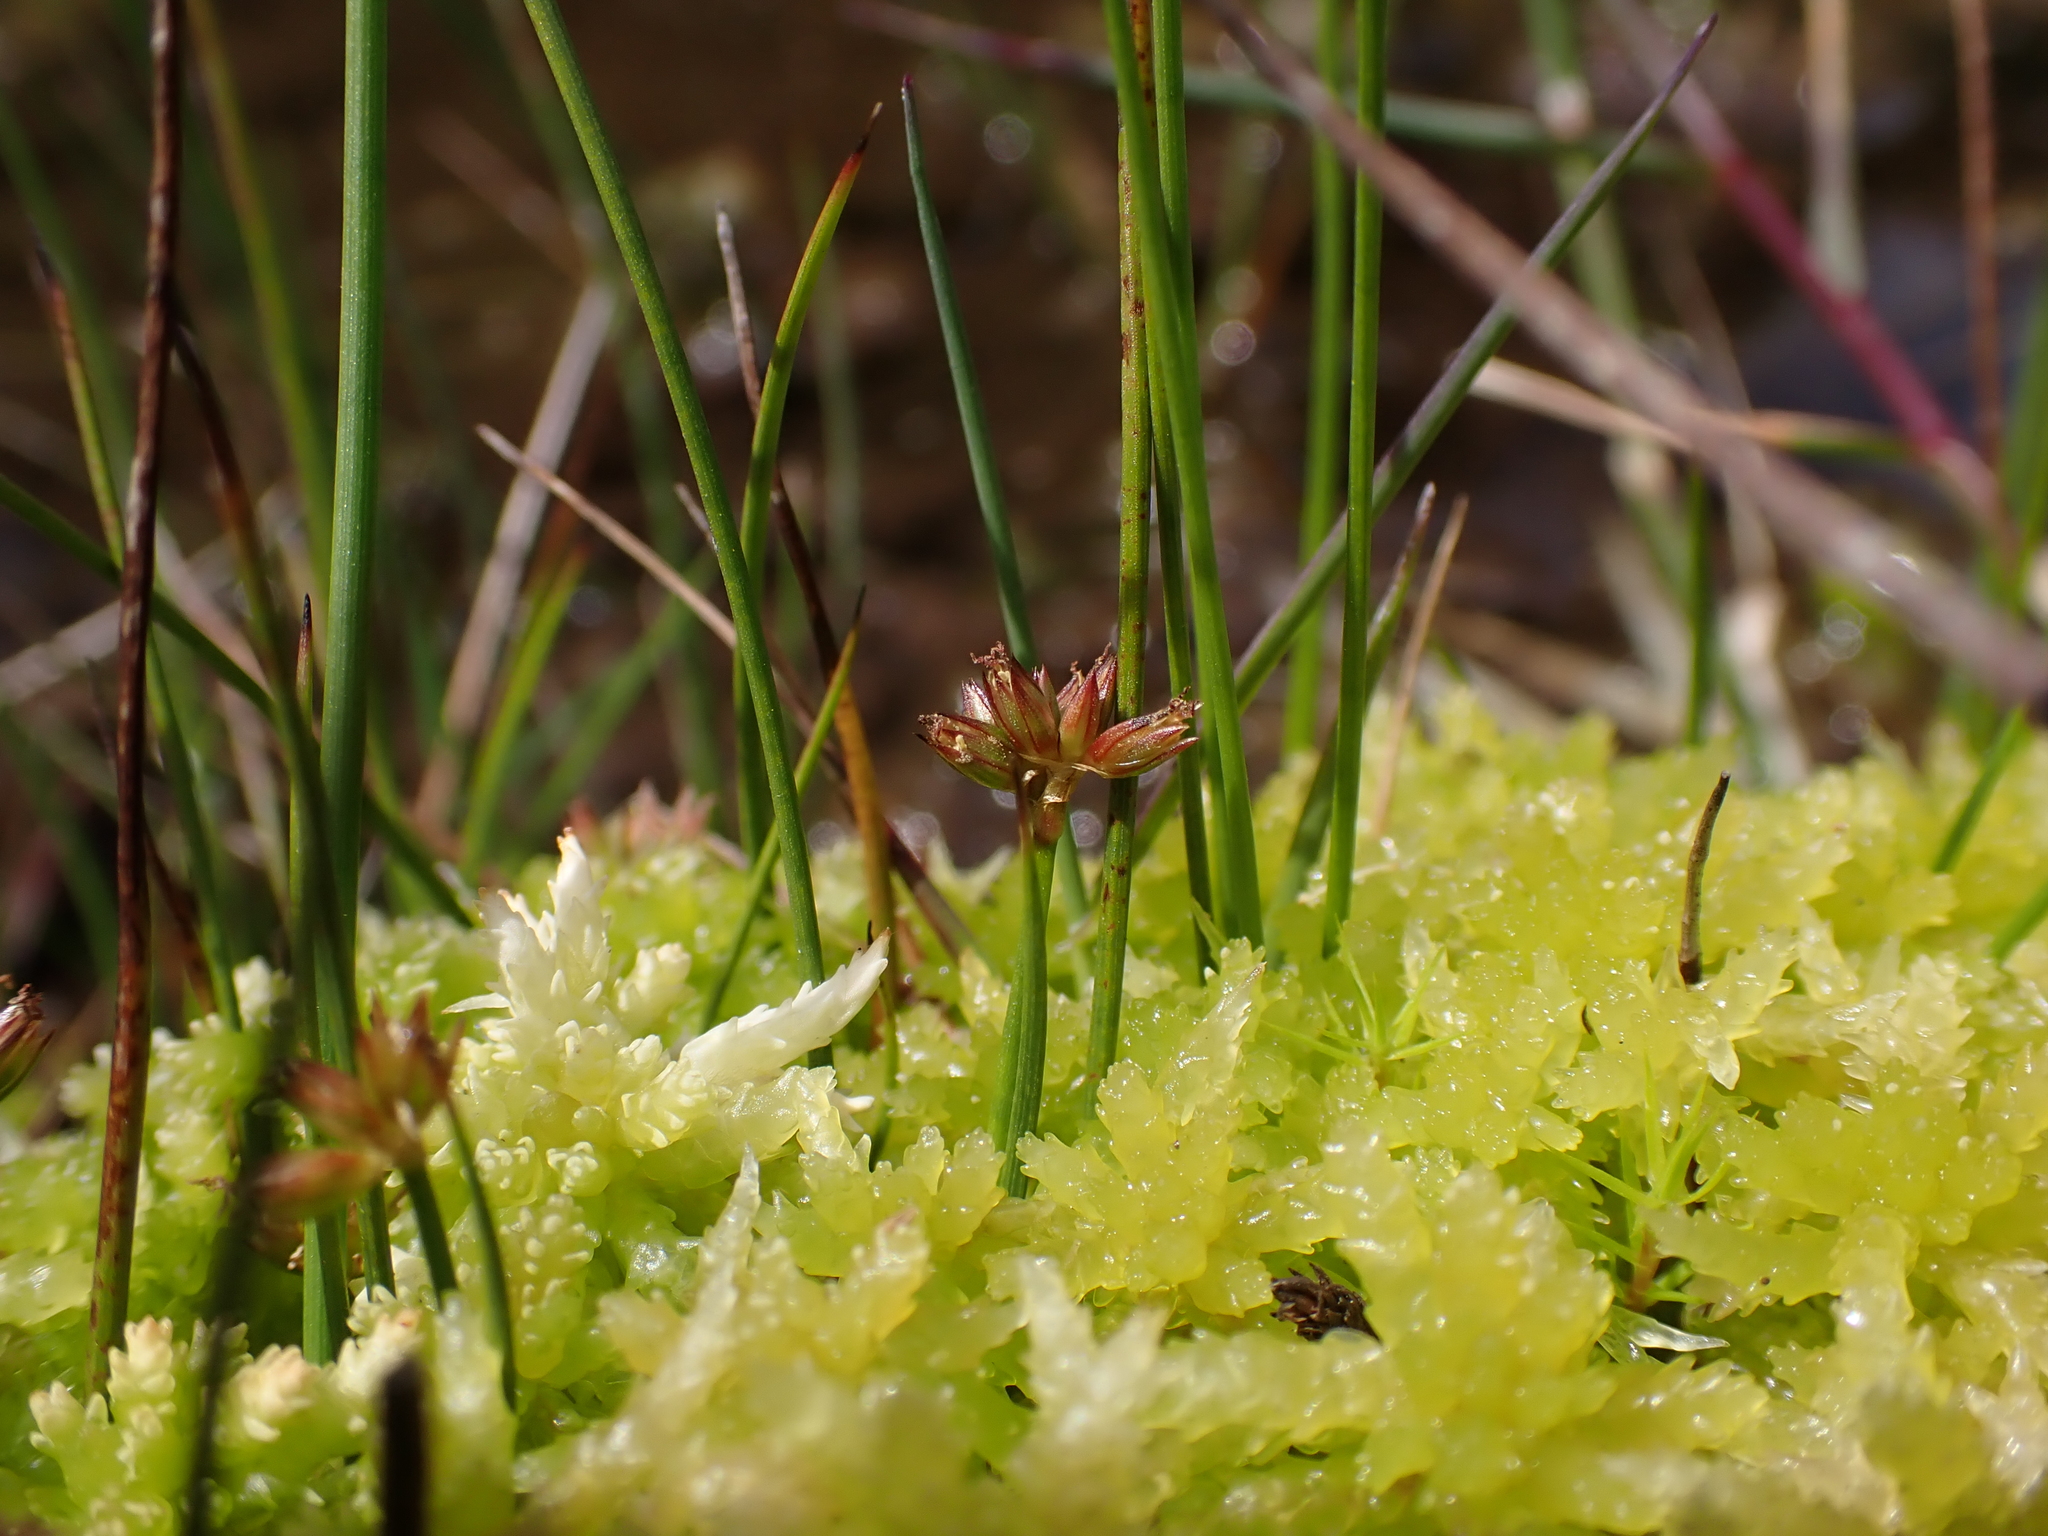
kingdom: Plantae
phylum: Tracheophyta
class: Liliopsida
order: Poales
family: Juncaceae
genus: Juncus
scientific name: Juncus sandwithii
